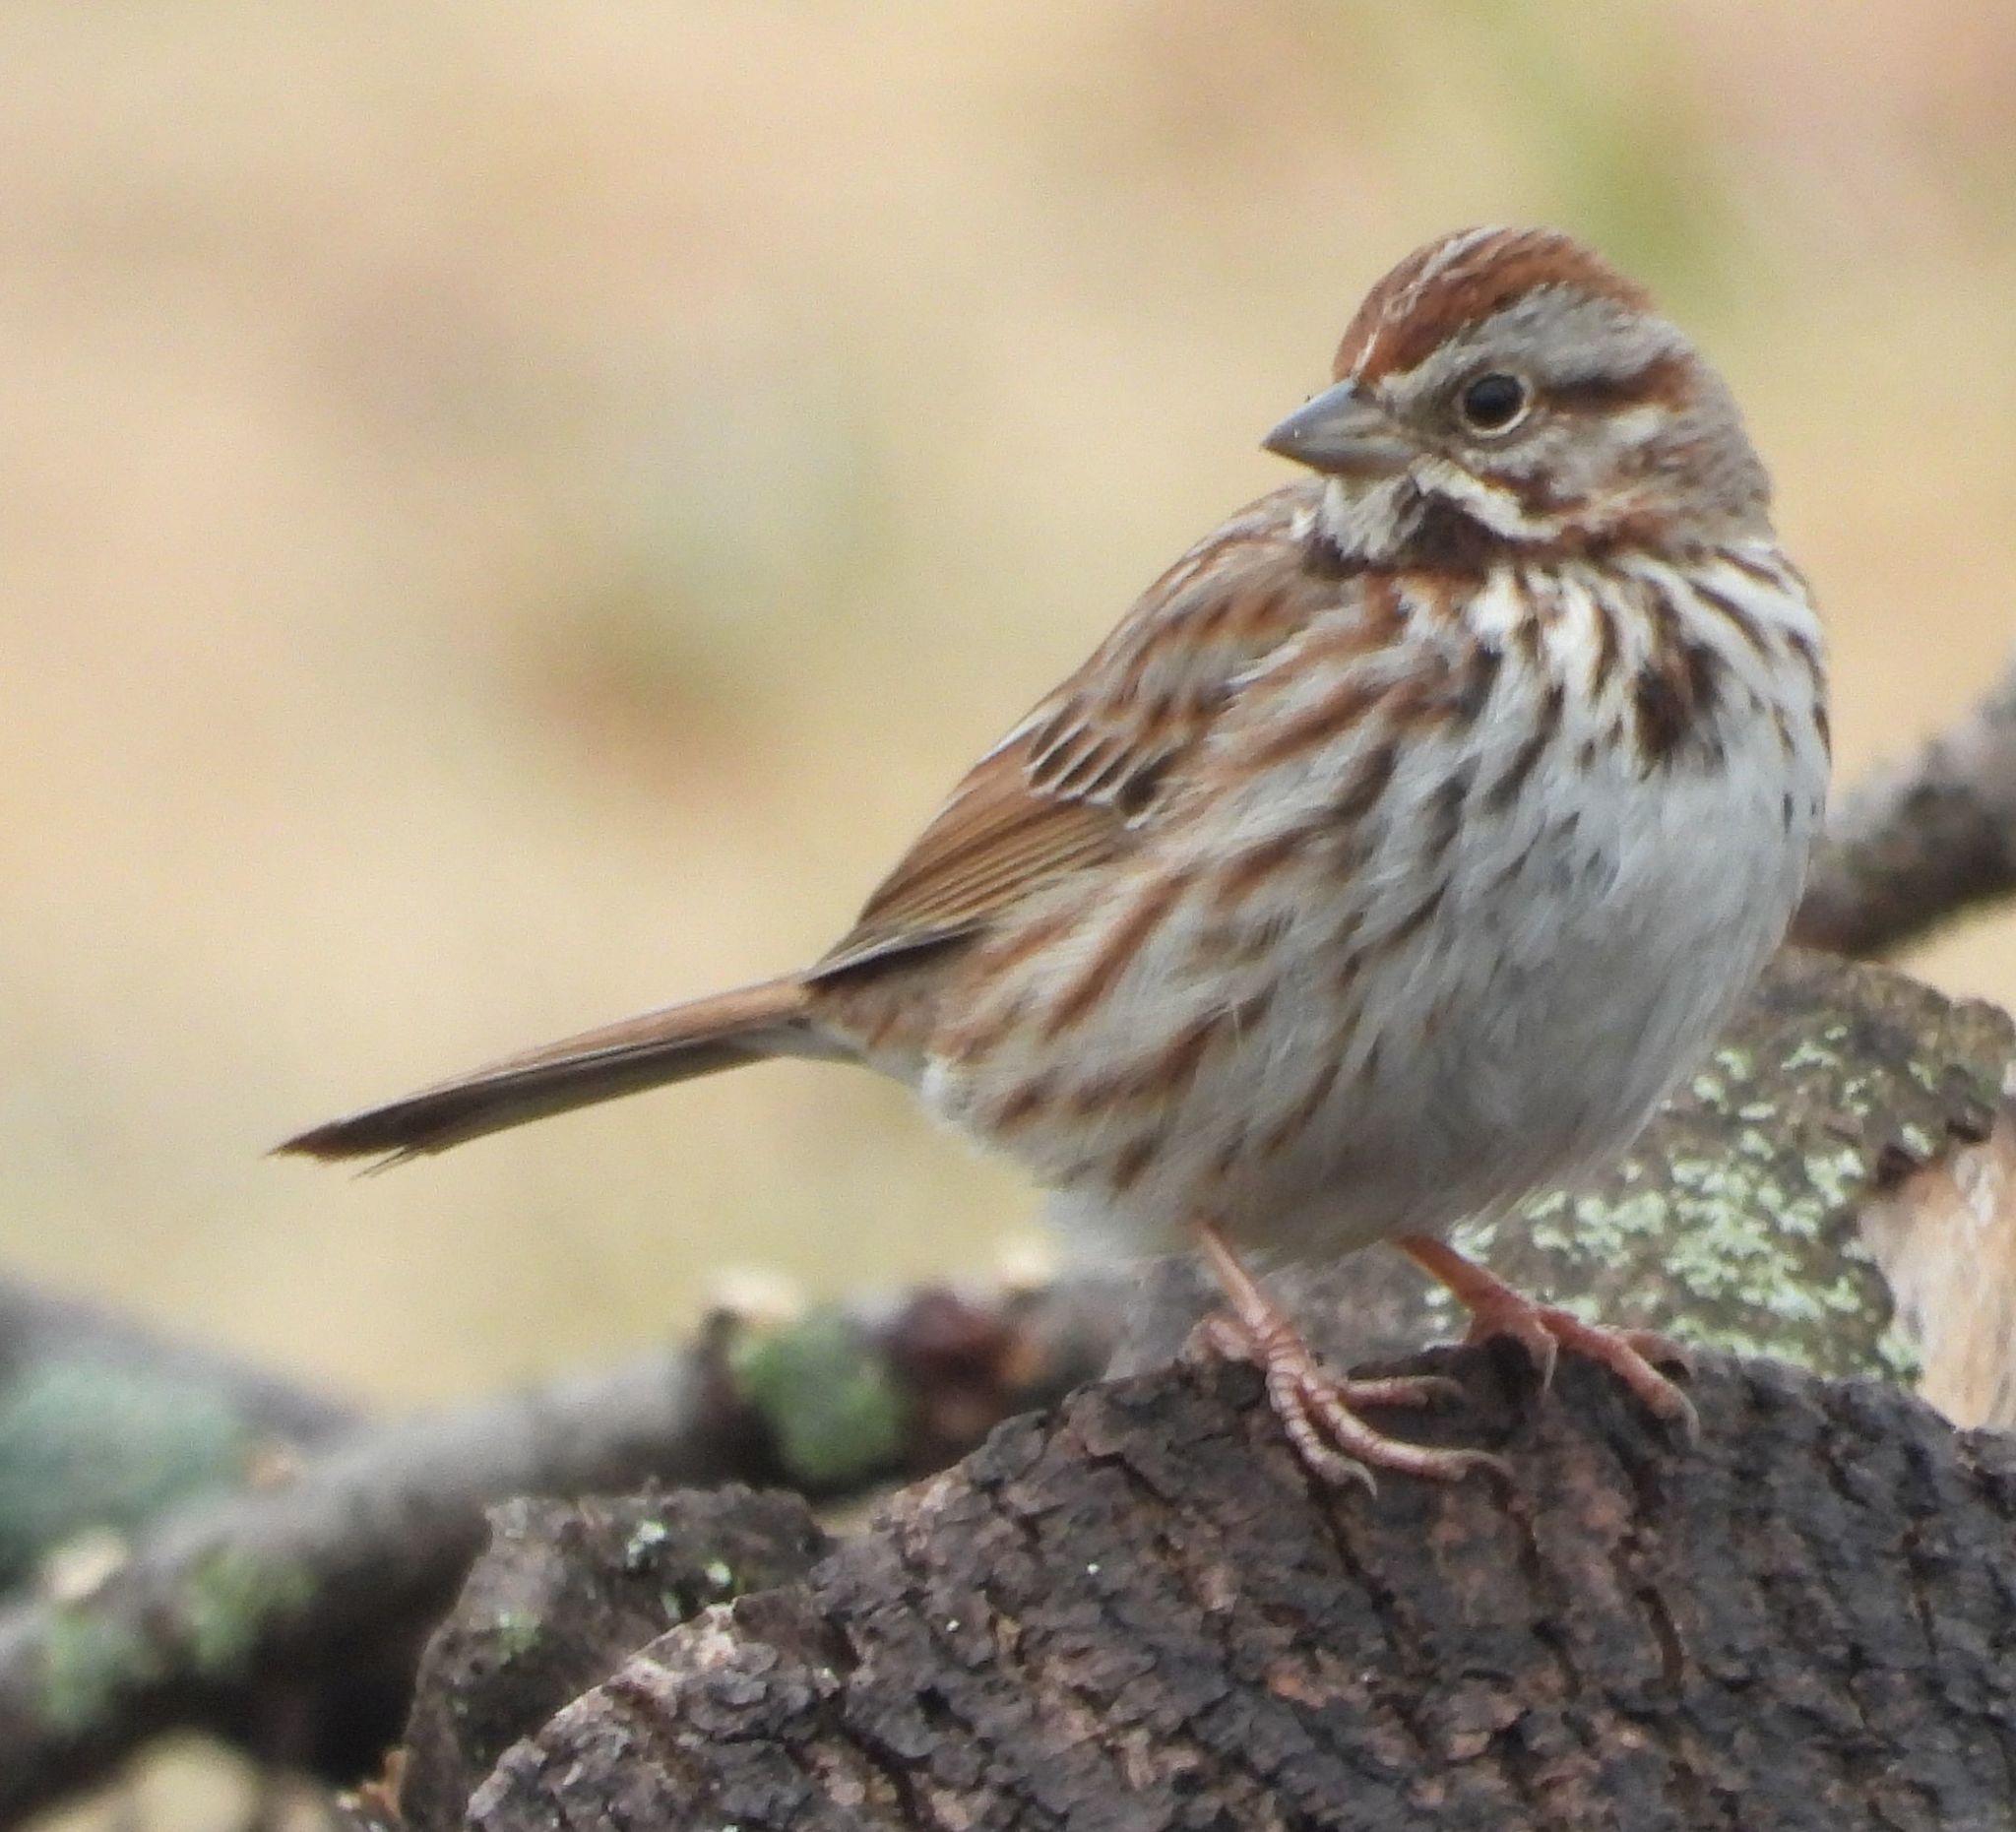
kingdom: Animalia
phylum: Chordata
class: Aves
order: Passeriformes
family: Passerellidae
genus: Melospiza
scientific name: Melospiza melodia
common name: Song sparrow
